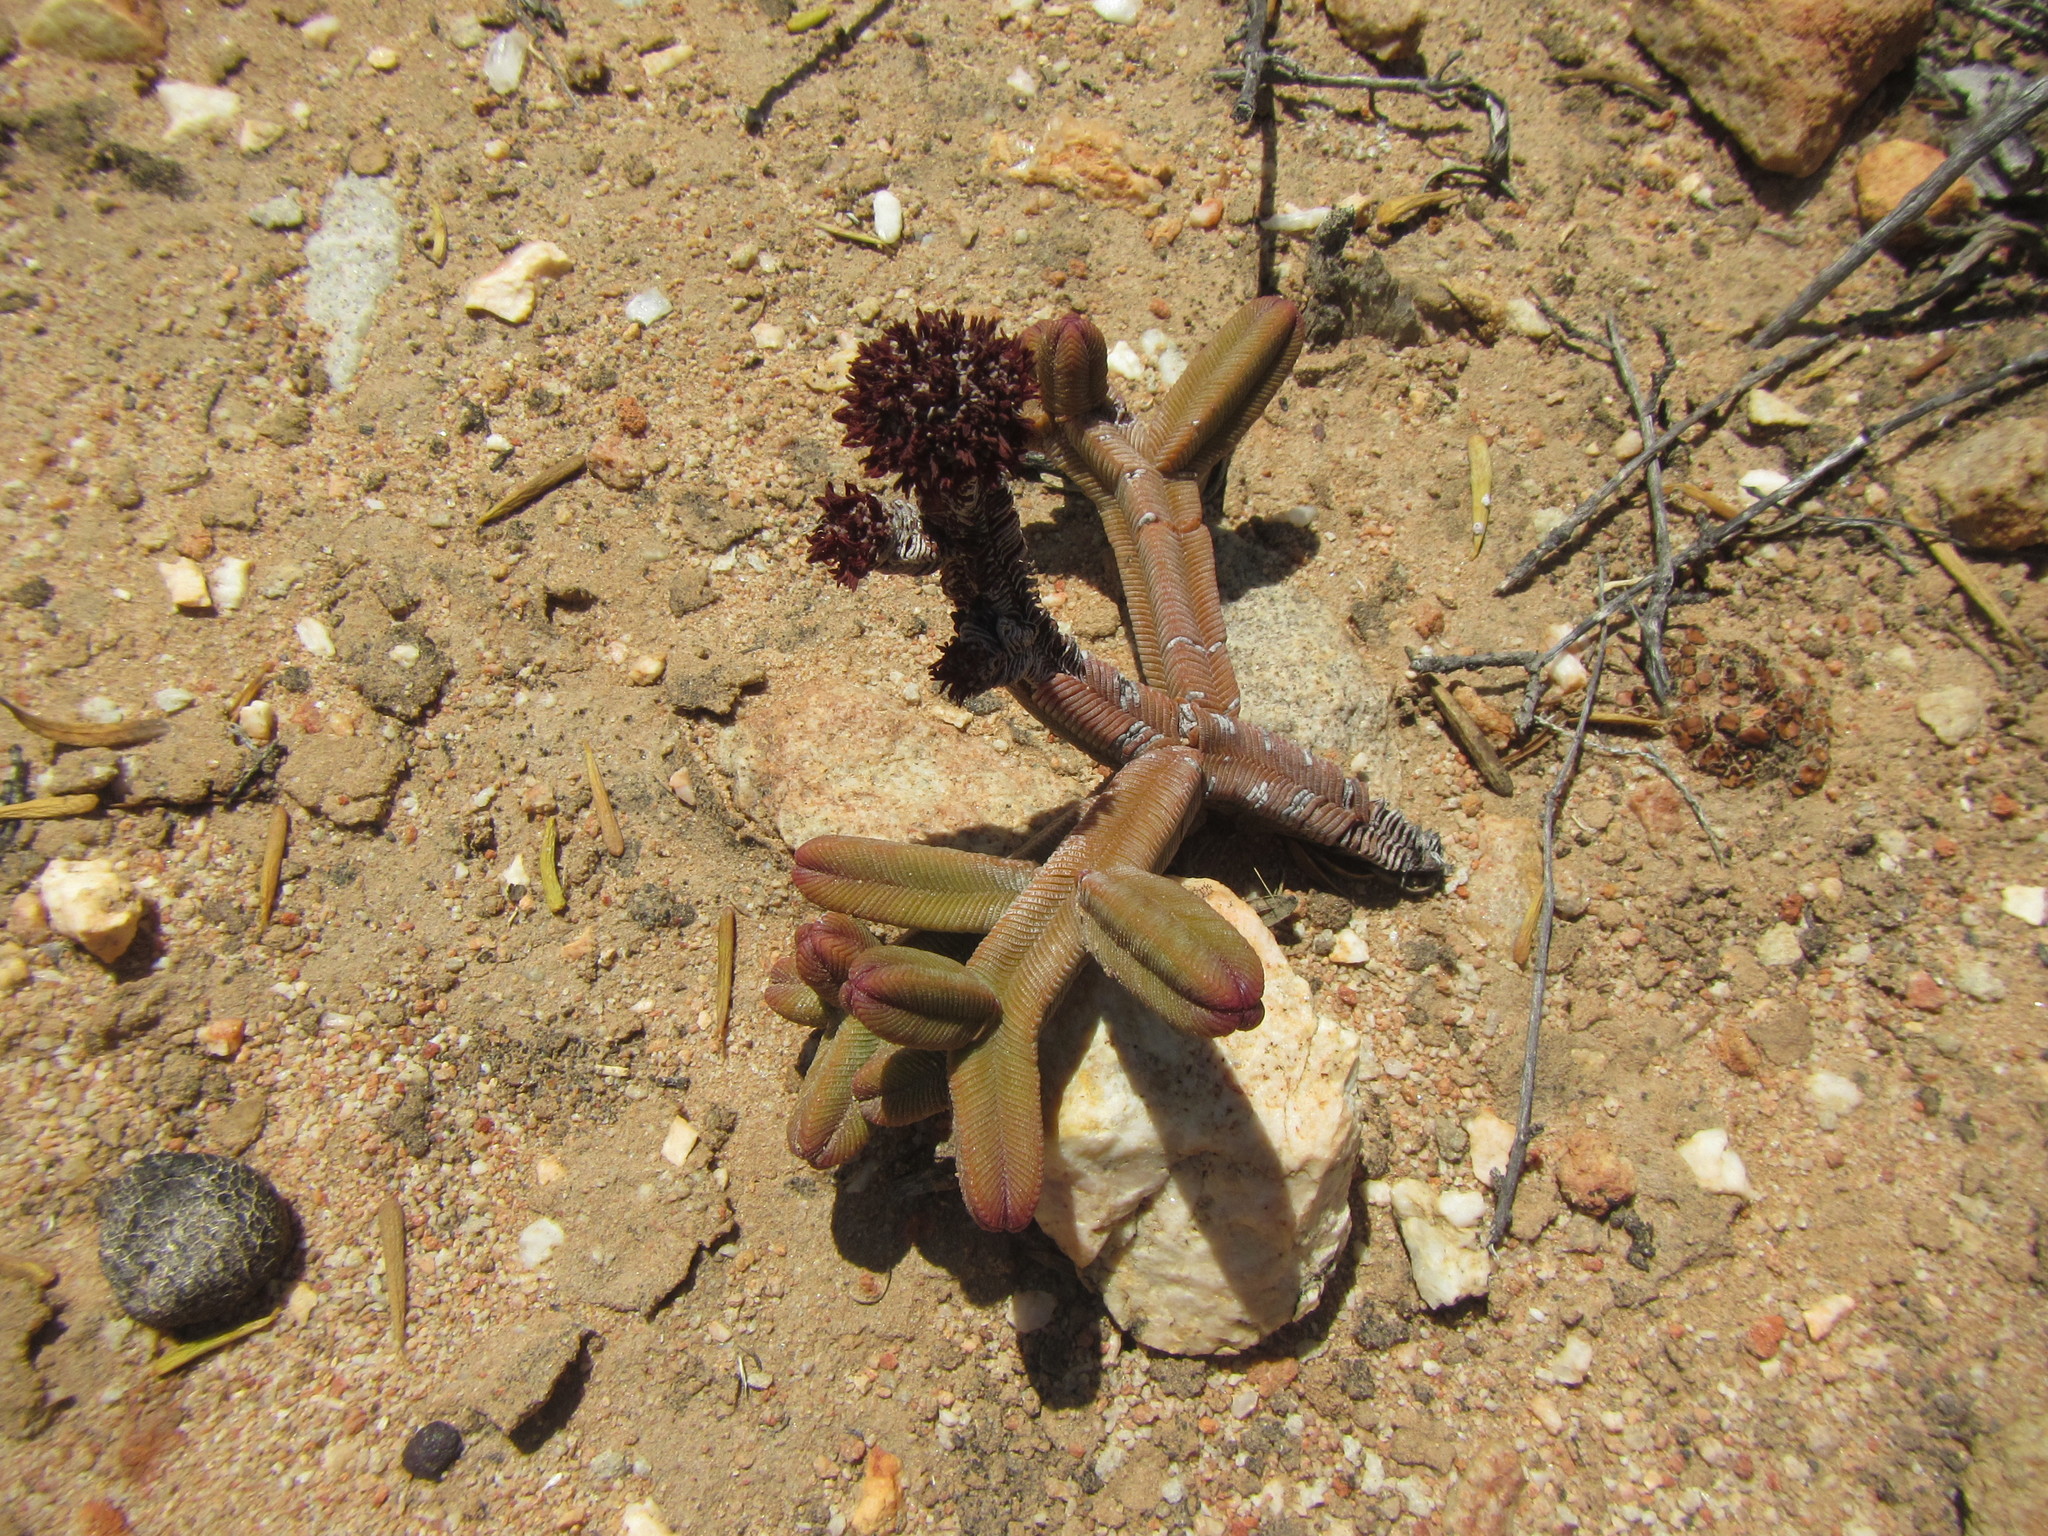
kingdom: Plantae
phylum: Tracheophyta
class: Magnoliopsida
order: Saxifragales
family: Crassulaceae
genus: Crassula
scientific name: Crassula pyramidalis
